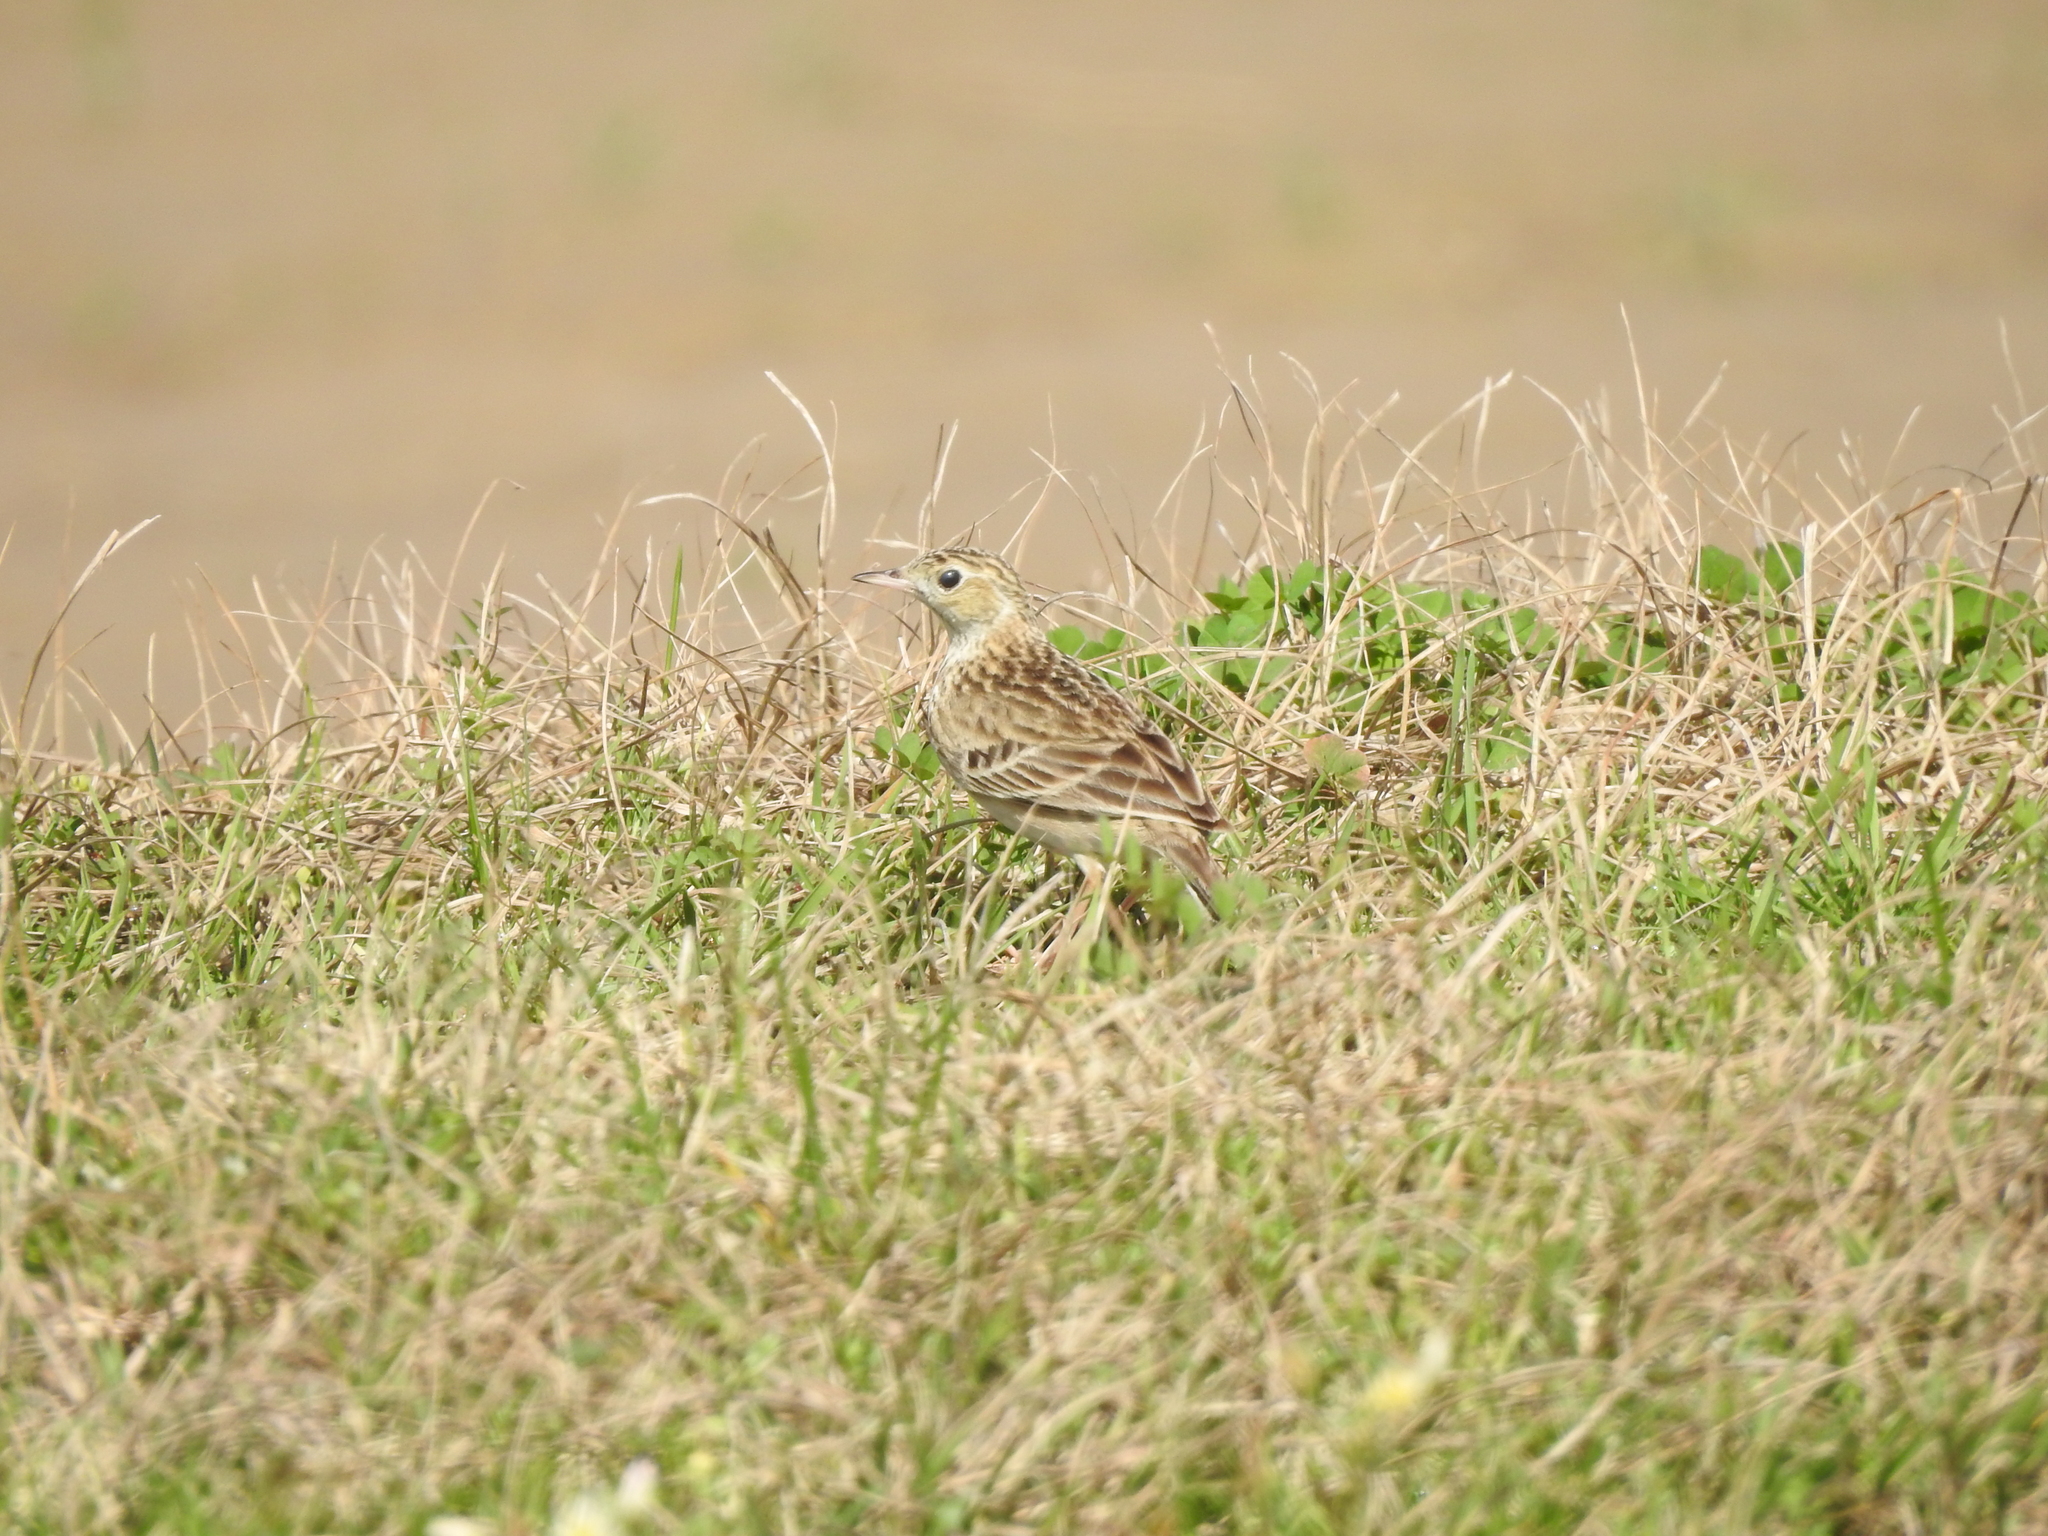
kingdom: Animalia
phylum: Chordata
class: Aves
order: Passeriformes
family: Motacillidae
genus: Anthus
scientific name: Anthus spragueii
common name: Sprague's pipit
